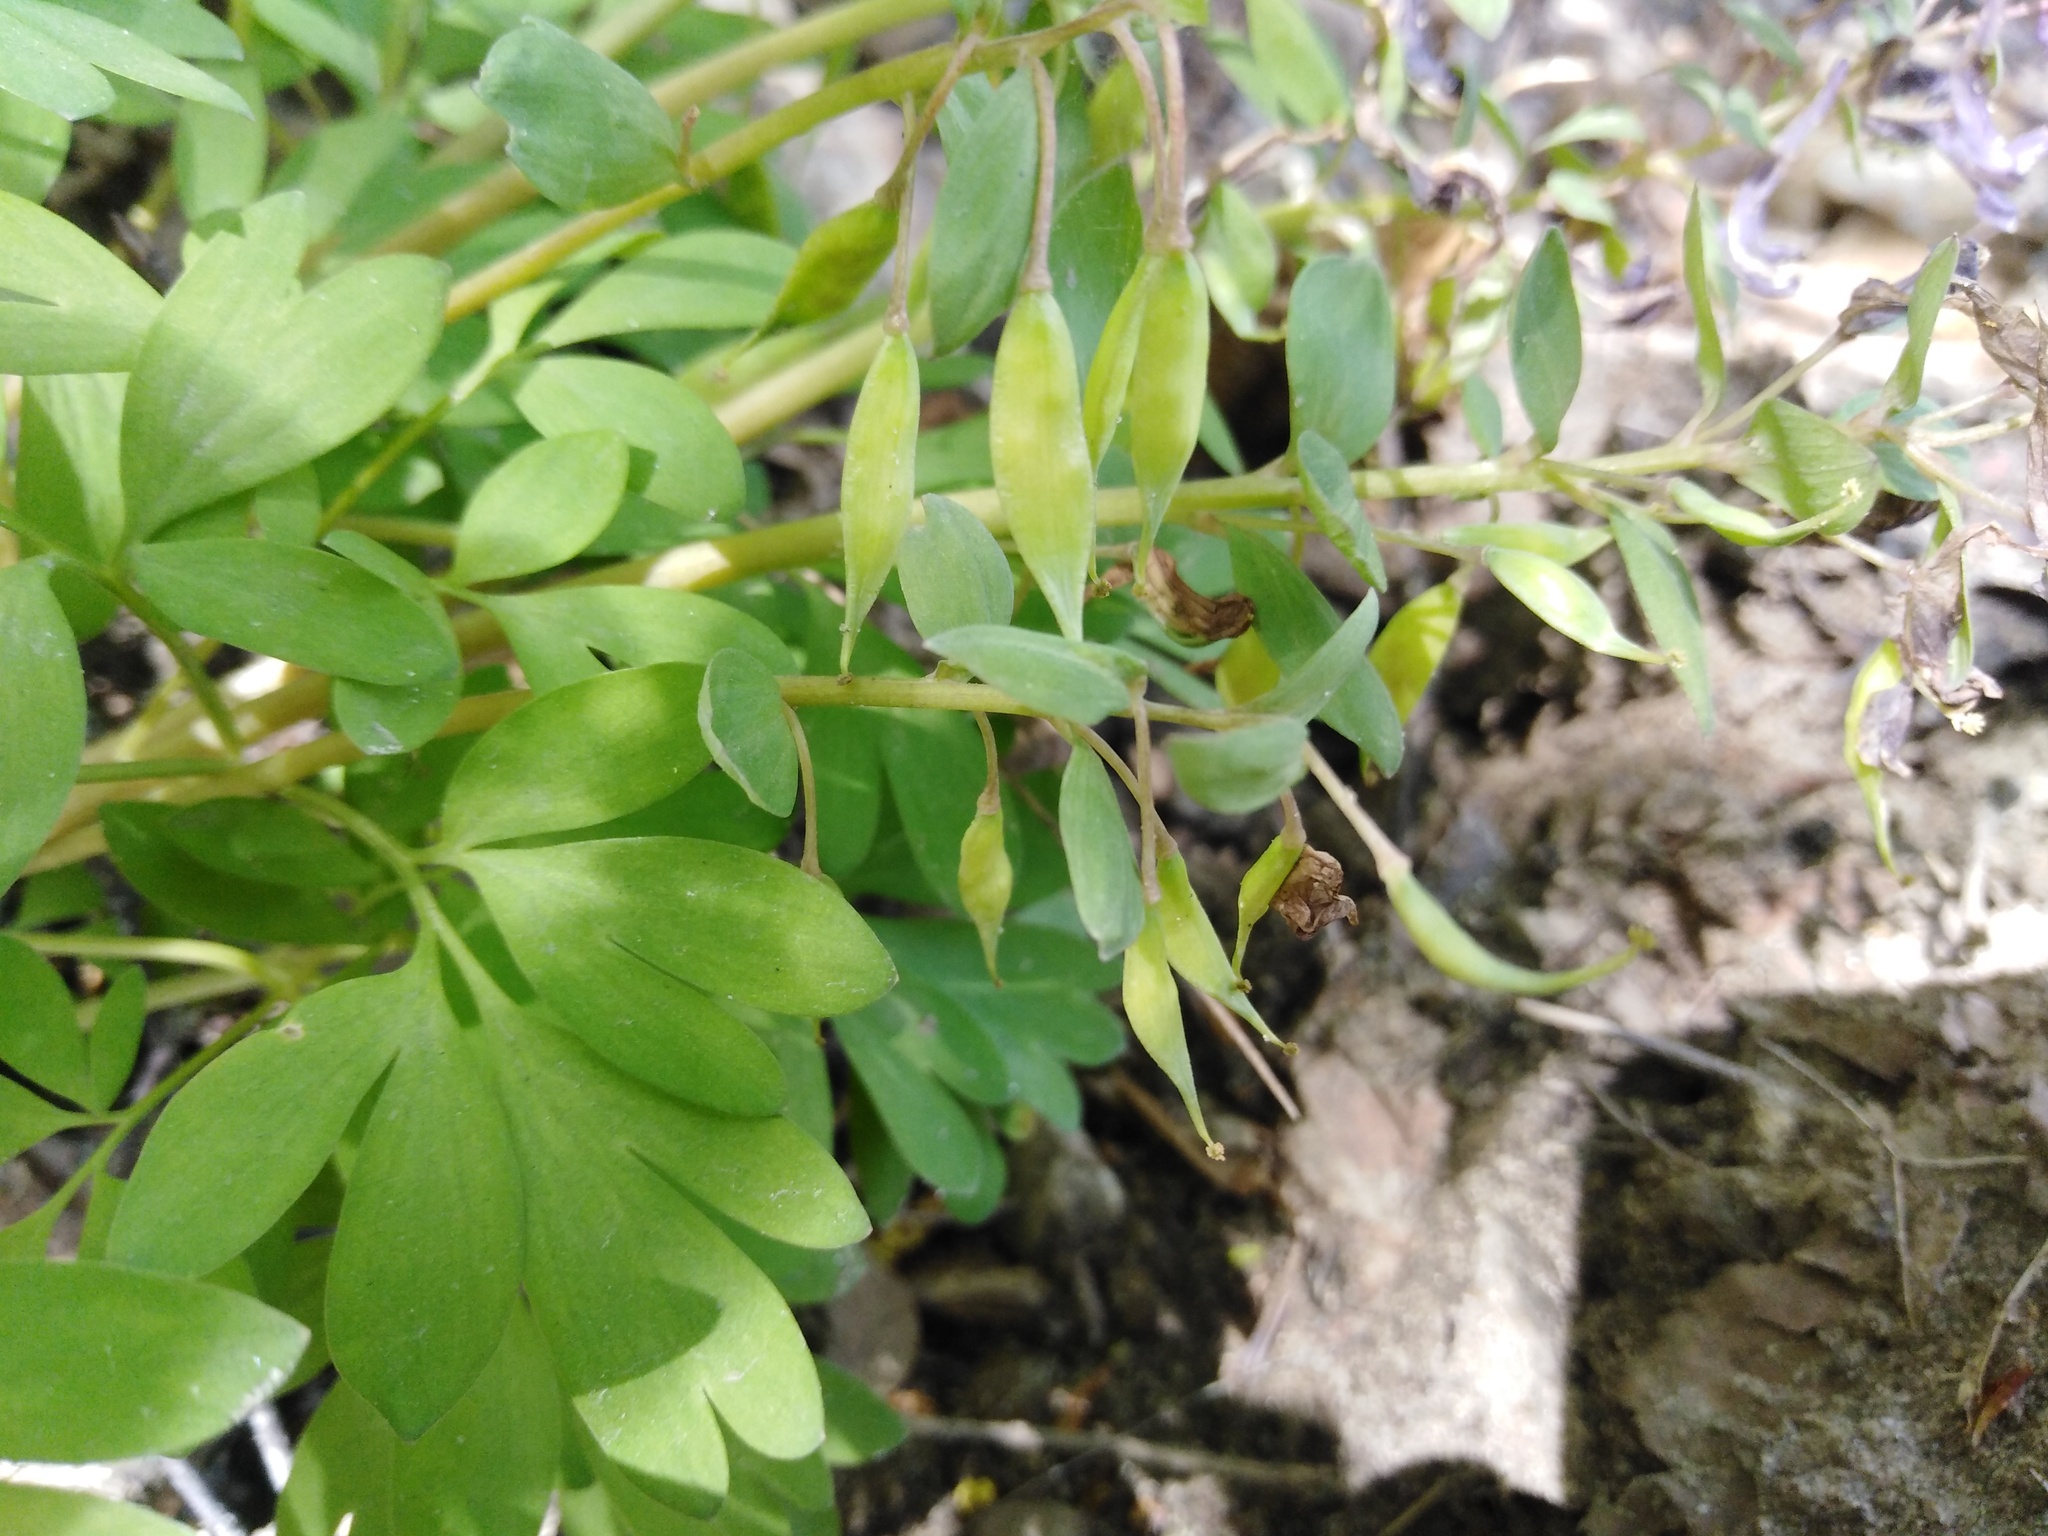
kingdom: Plantae
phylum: Tracheophyta
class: Magnoliopsida
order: Ranunculales
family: Papaveraceae
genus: Corydalis
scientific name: Corydalis solida
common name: Bird-in-a-bush
